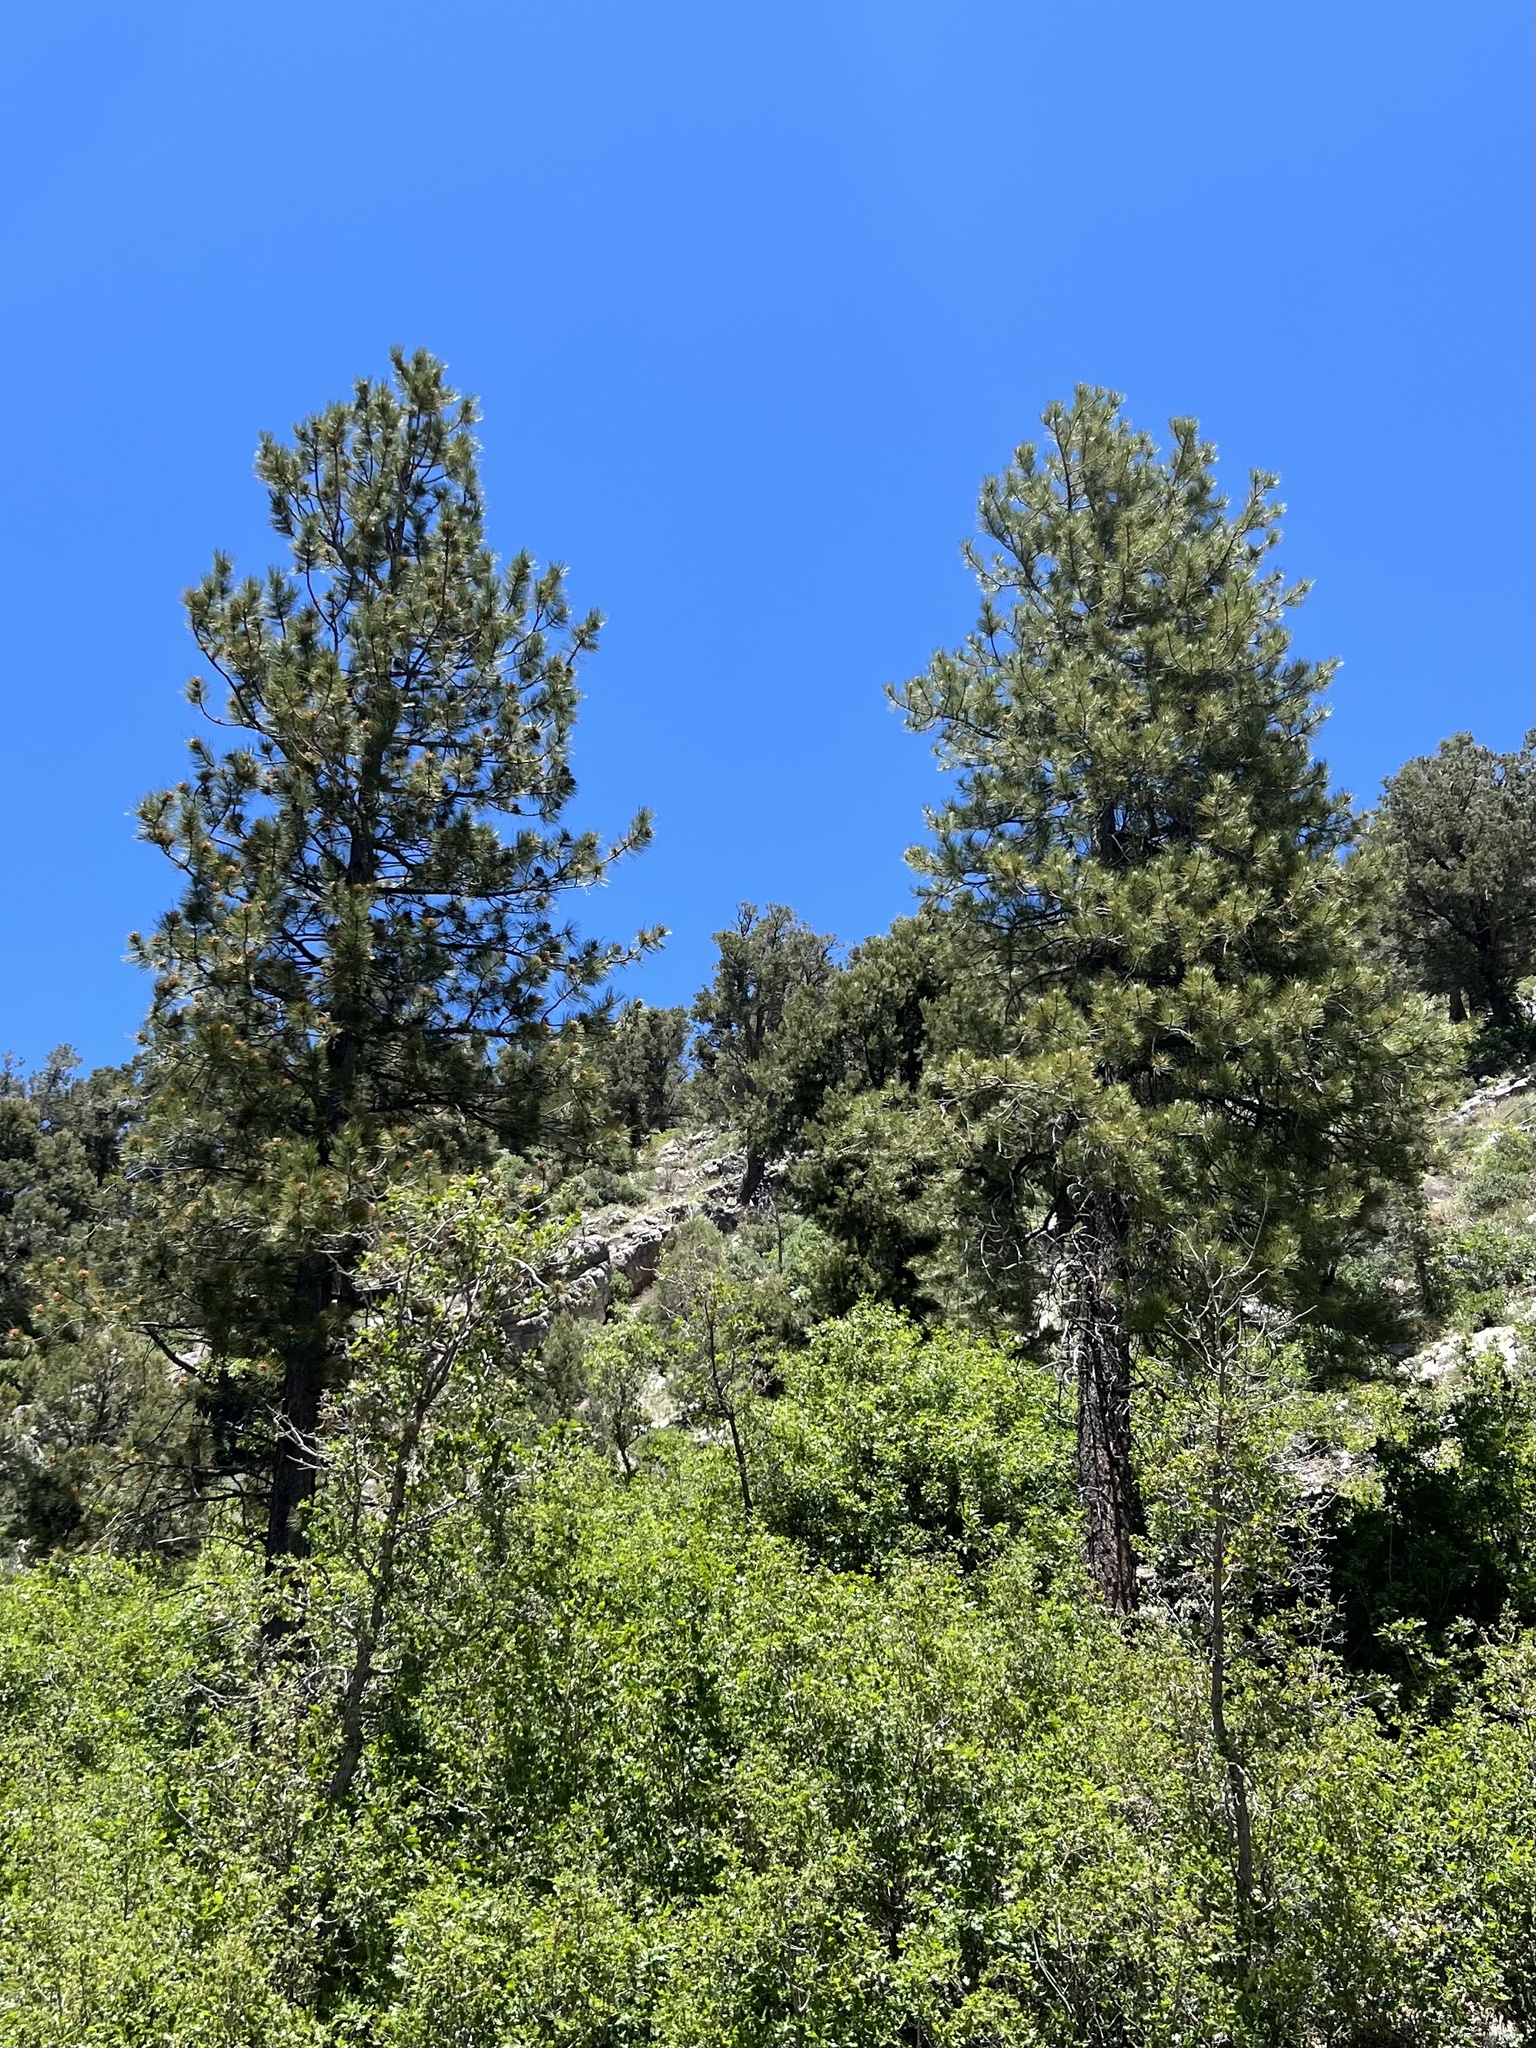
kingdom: Plantae
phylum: Tracheophyta
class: Pinopsida
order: Pinales
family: Pinaceae
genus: Pinus
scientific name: Pinus ponderosa
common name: Western yellow-pine
